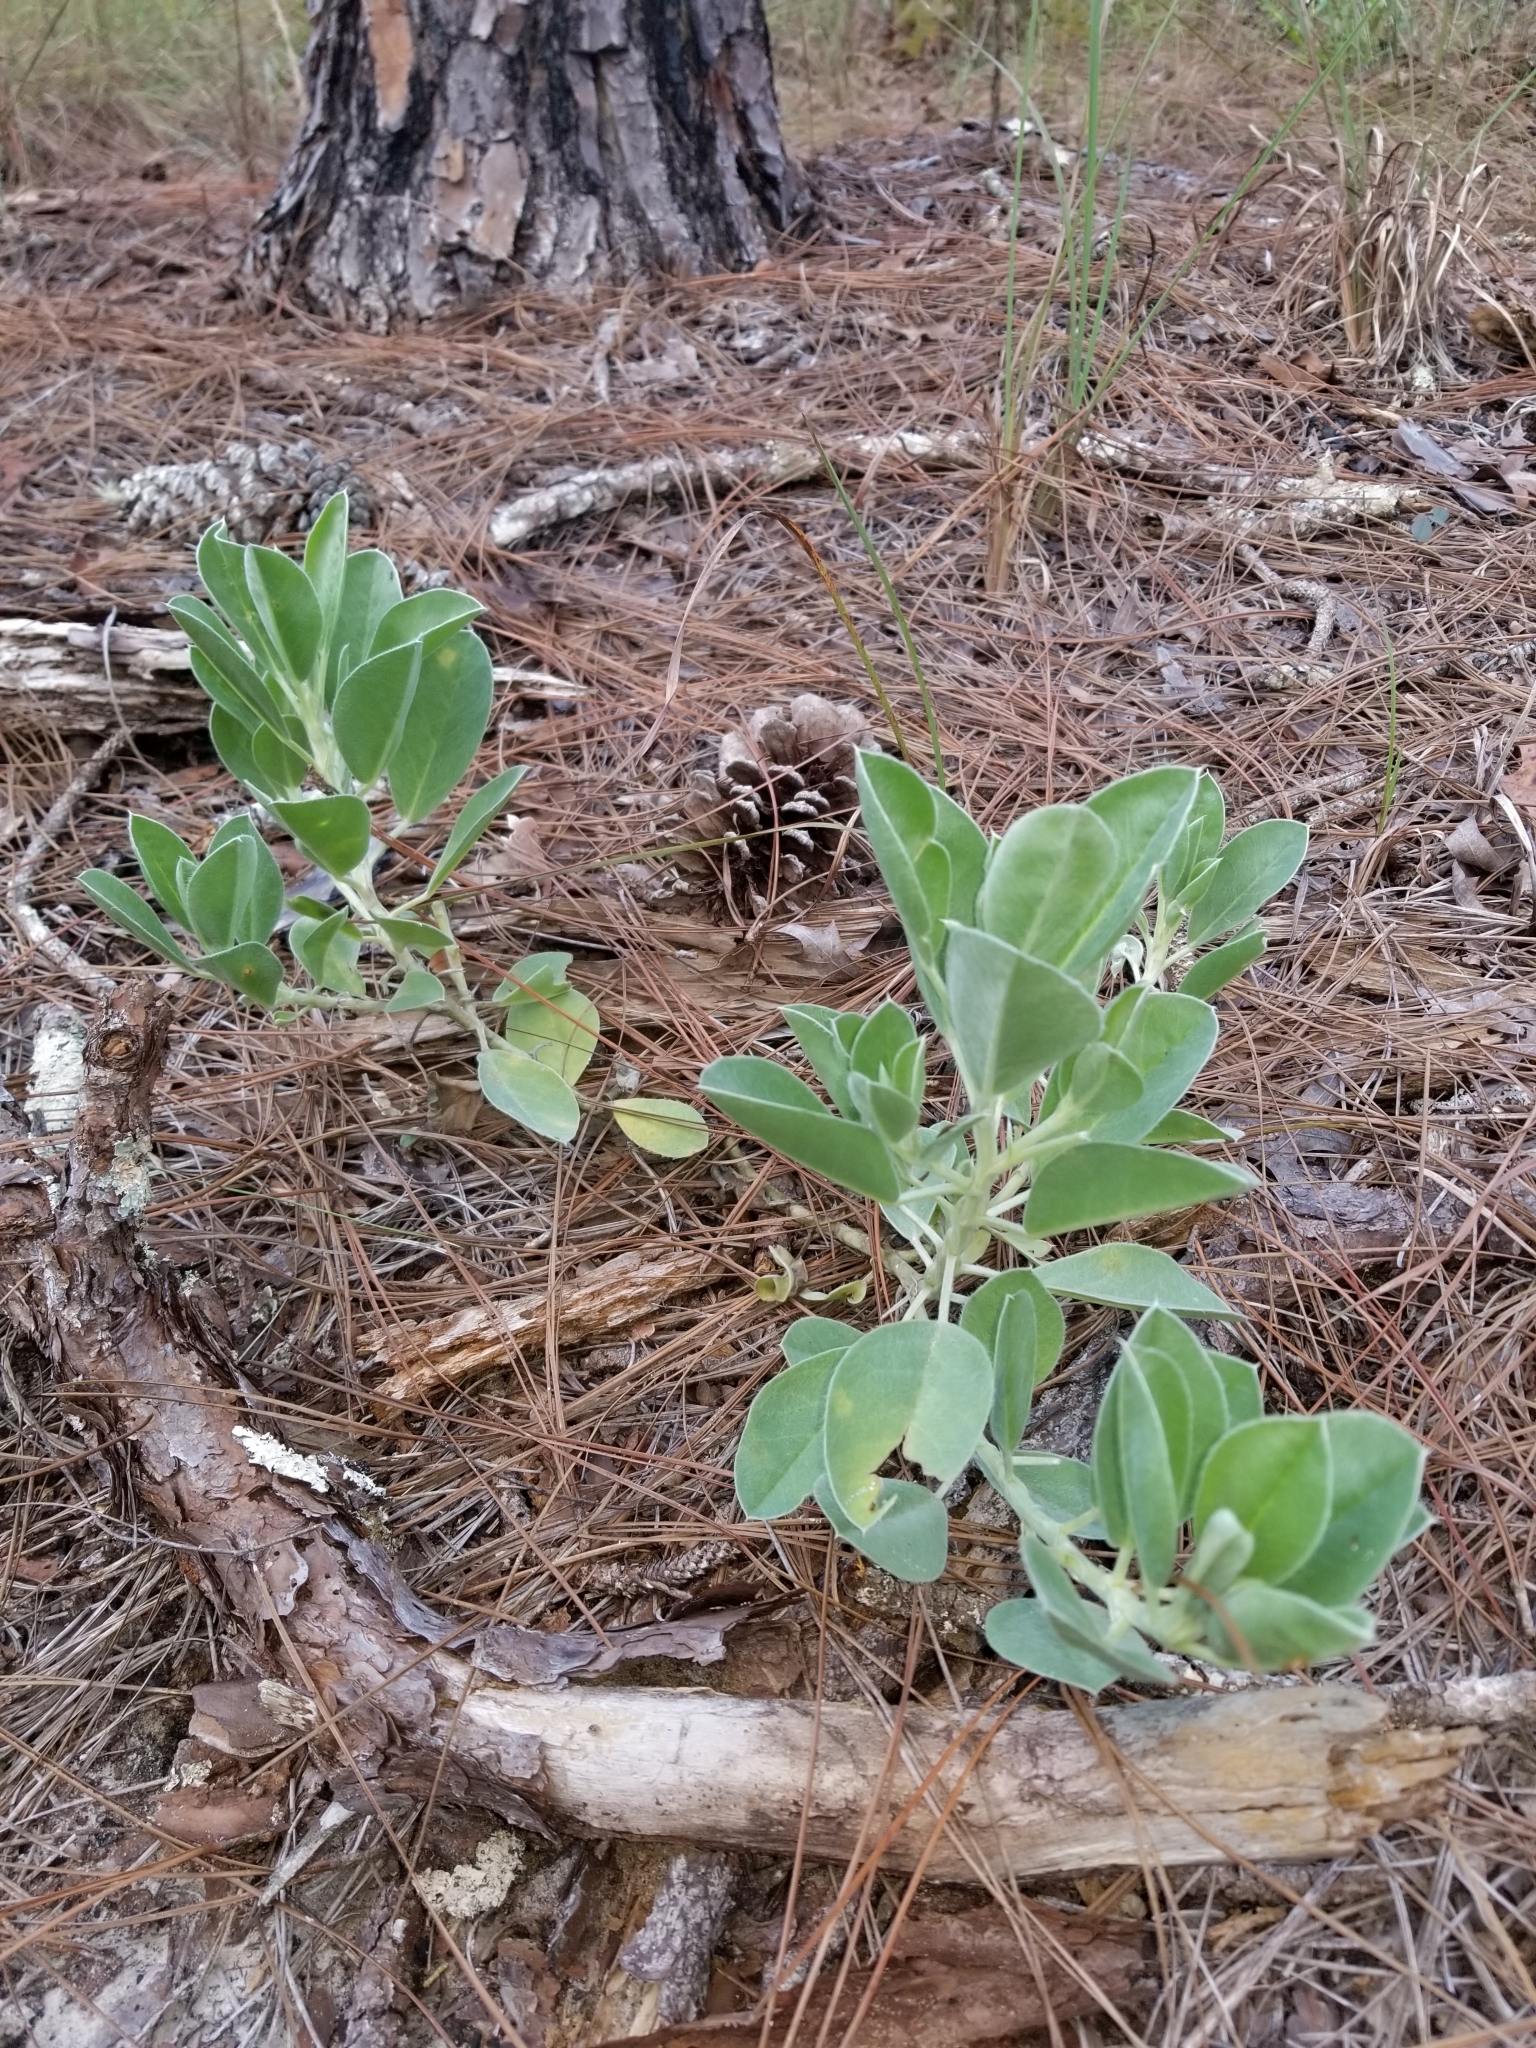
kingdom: Plantae
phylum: Tracheophyta
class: Magnoliopsida
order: Fabales
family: Fabaceae
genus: Lupinus
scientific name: Lupinus
